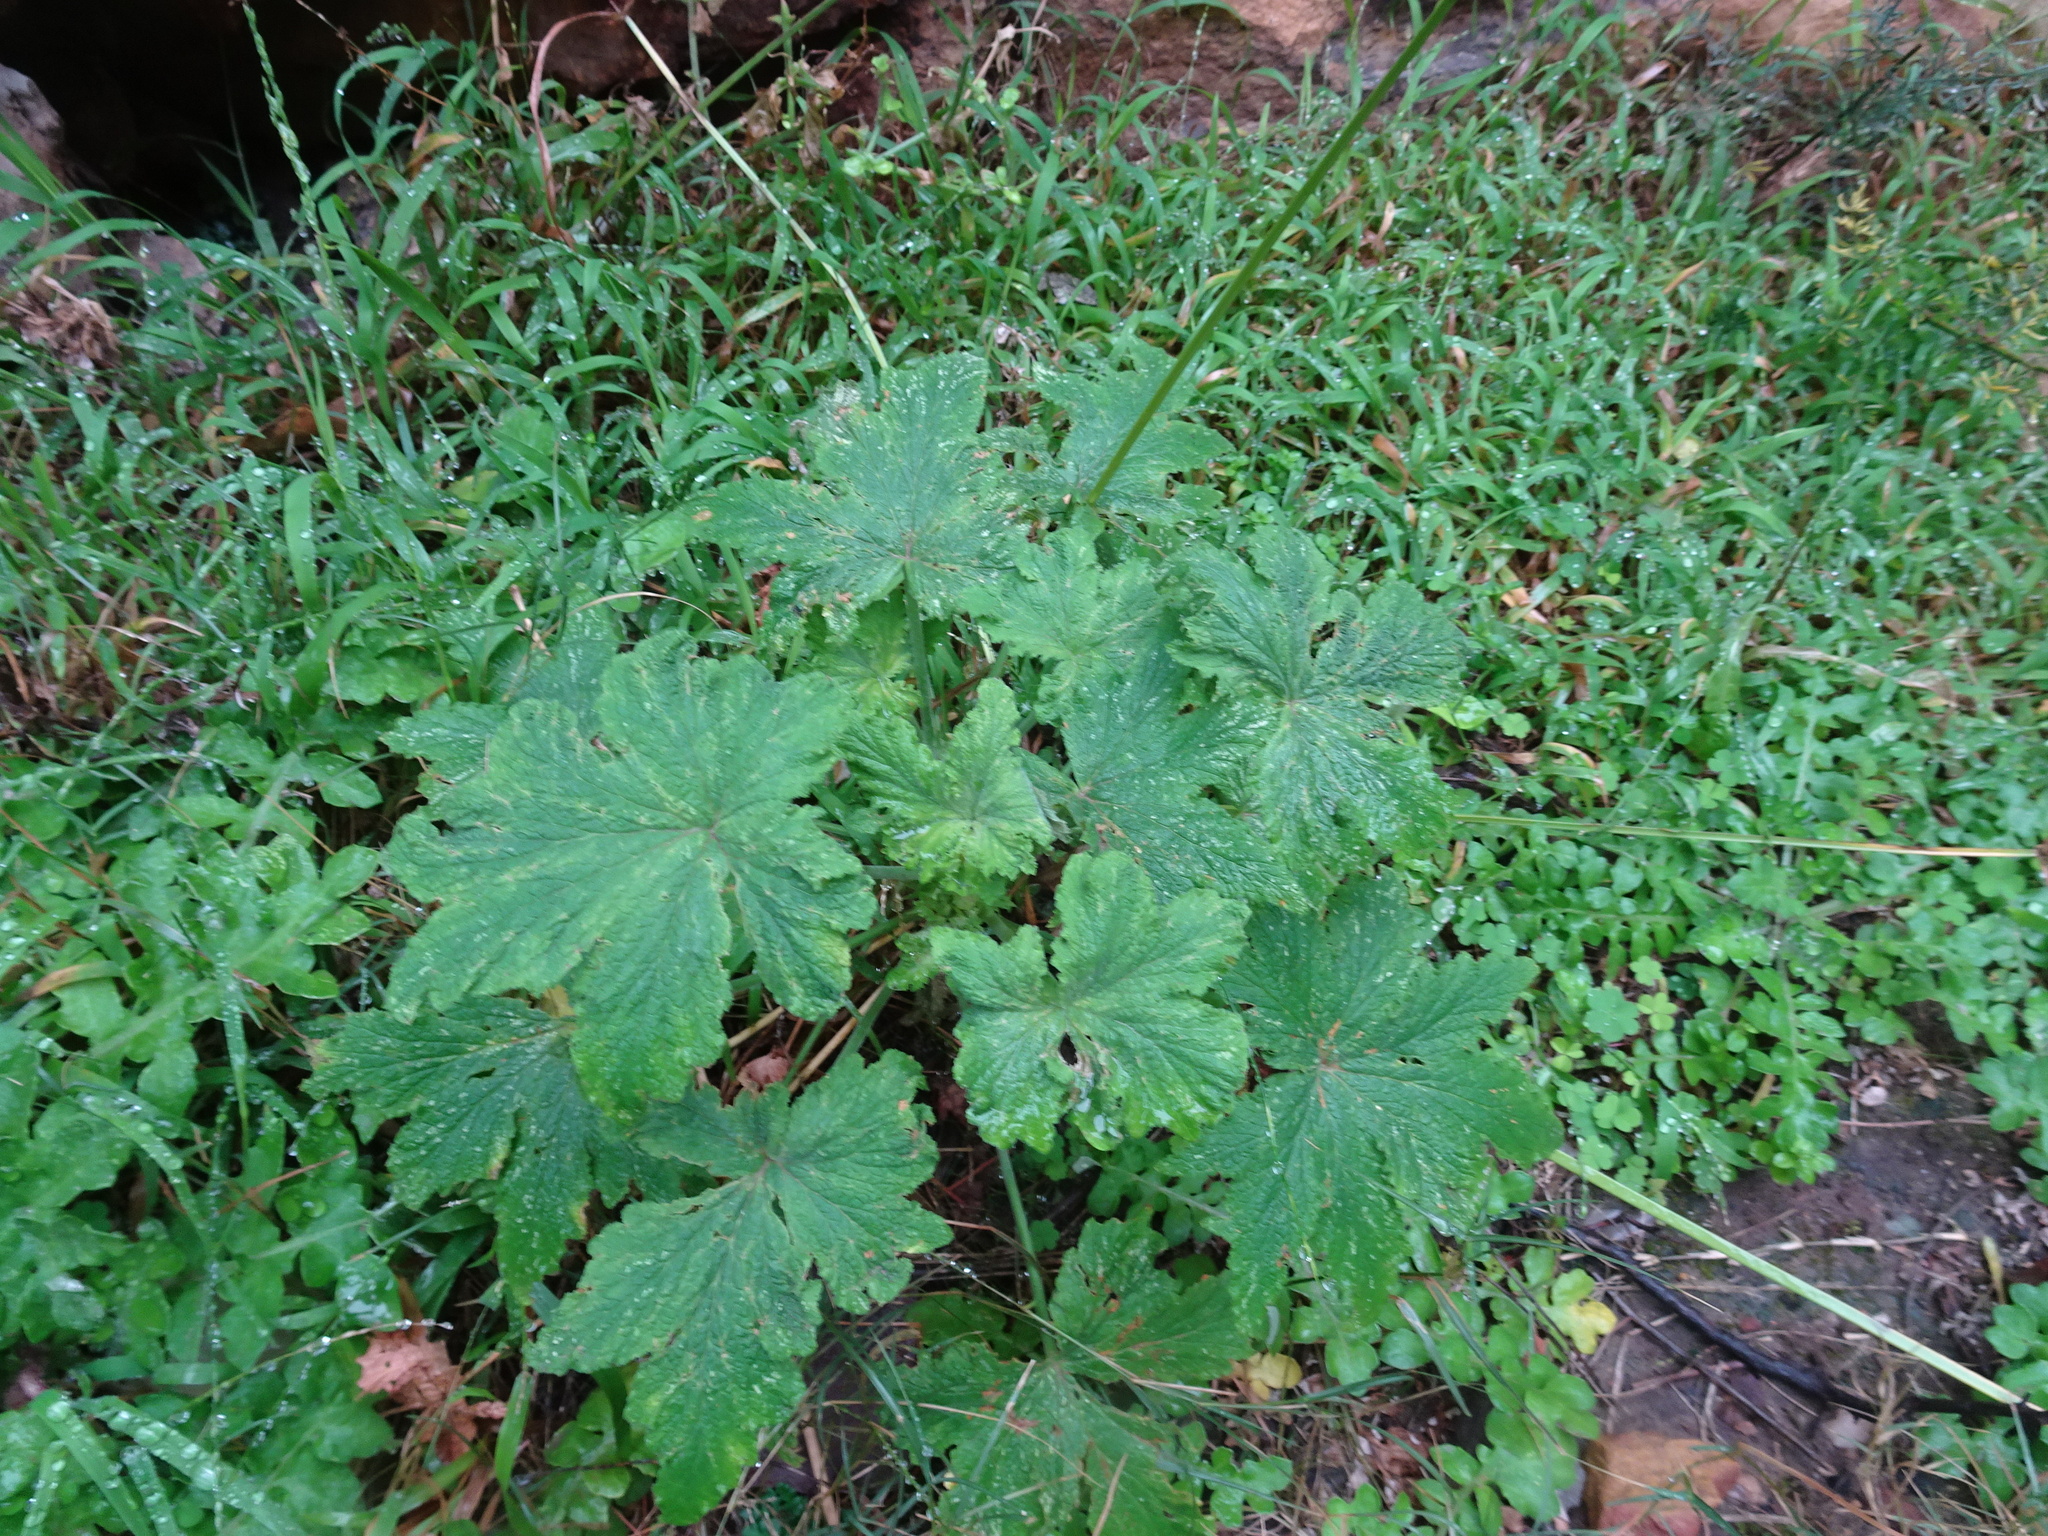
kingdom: Plantae
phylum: Tracheophyta
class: Magnoliopsida
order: Geraniales
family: Geraniaceae
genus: Pelargonium
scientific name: Pelargonium hispidum
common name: Hispid pelargonium
